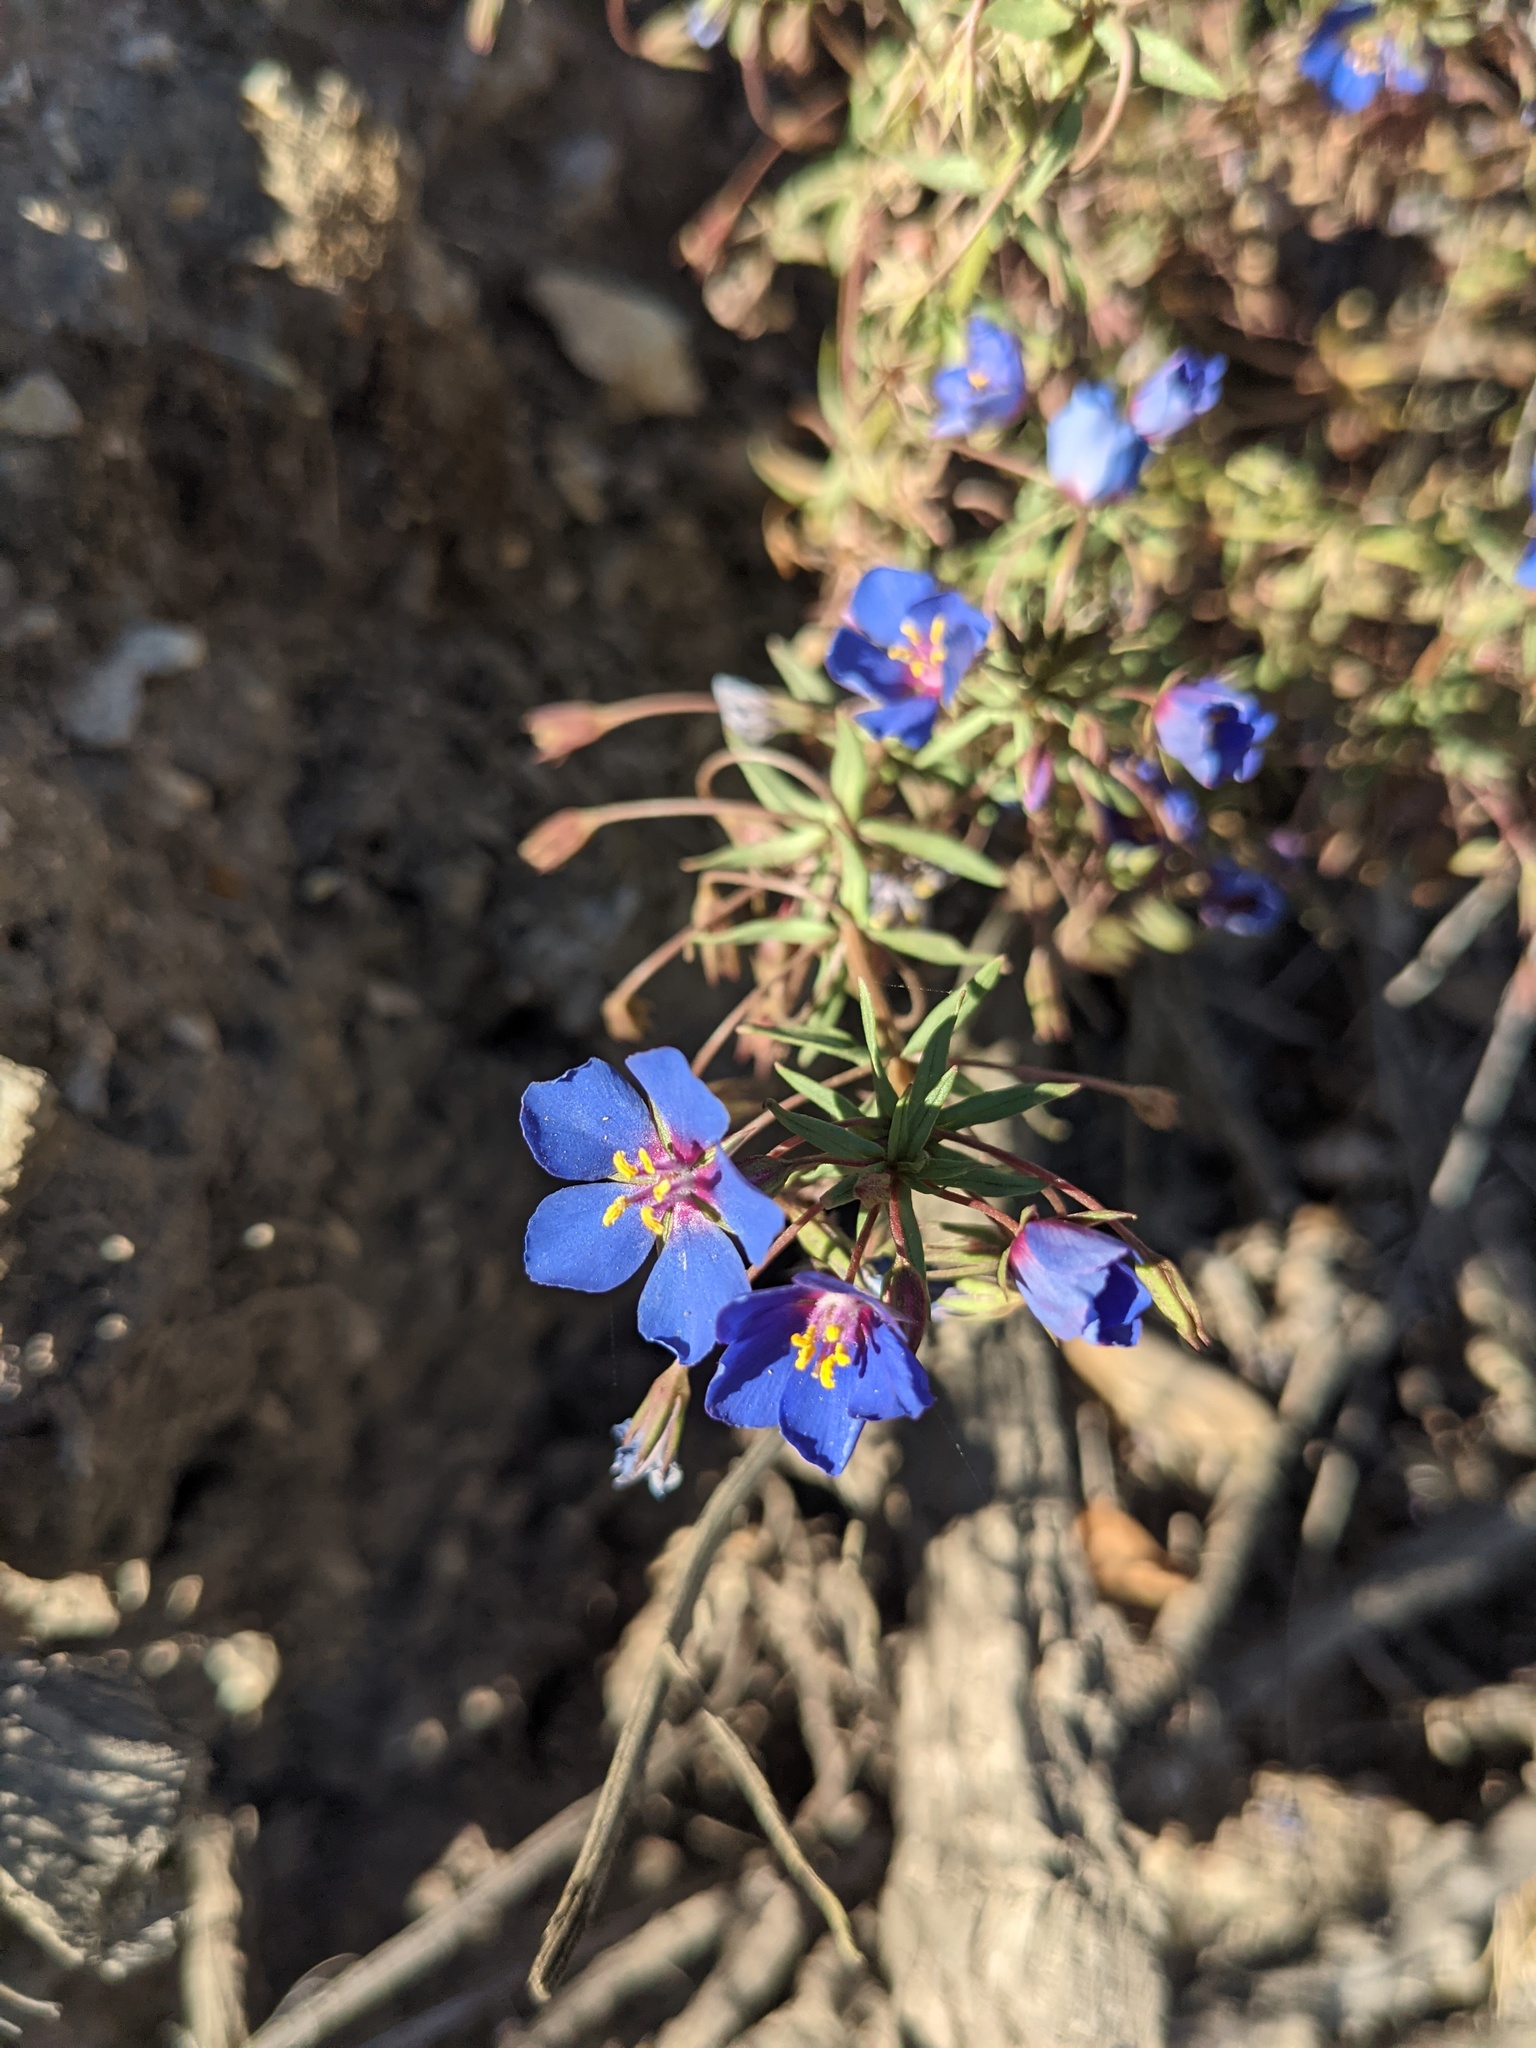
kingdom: Plantae
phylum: Tracheophyta
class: Magnoliopsida
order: Ericales
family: Primulaceae
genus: Lysimachia
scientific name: Lysimachia monelli
